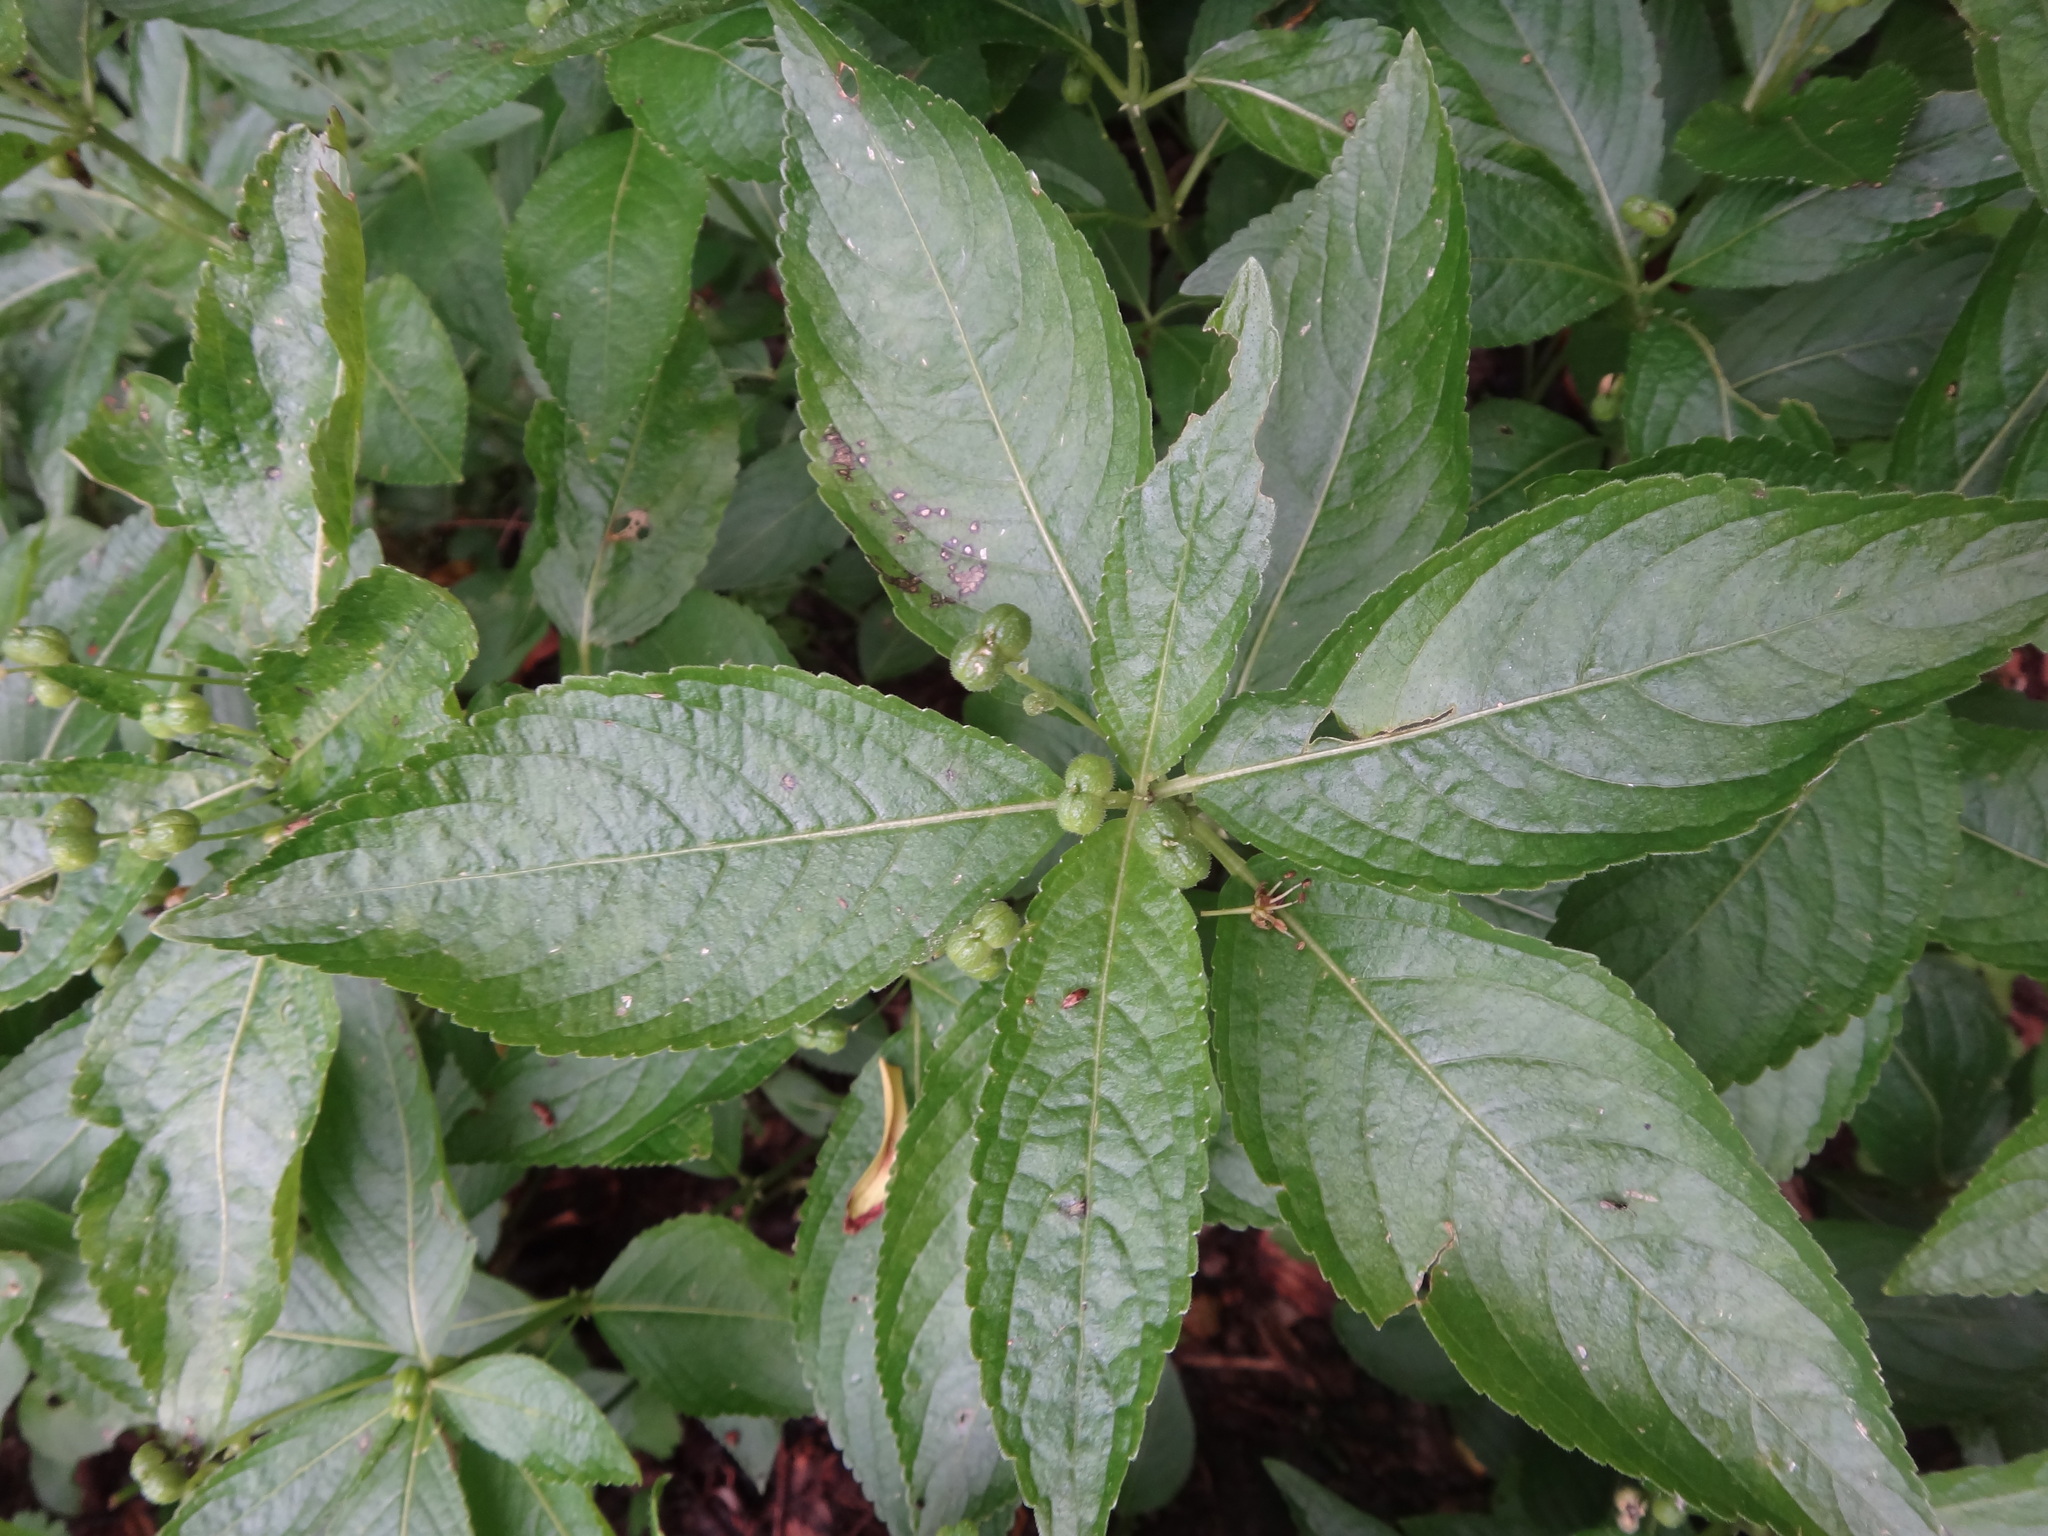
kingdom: Plantae
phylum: Tracheophyta
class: Magnoliopsida
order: Malpighiales
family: Euphorbiaceae
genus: Mercurialis
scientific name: Mercurialis perennis
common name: Dog mercury
